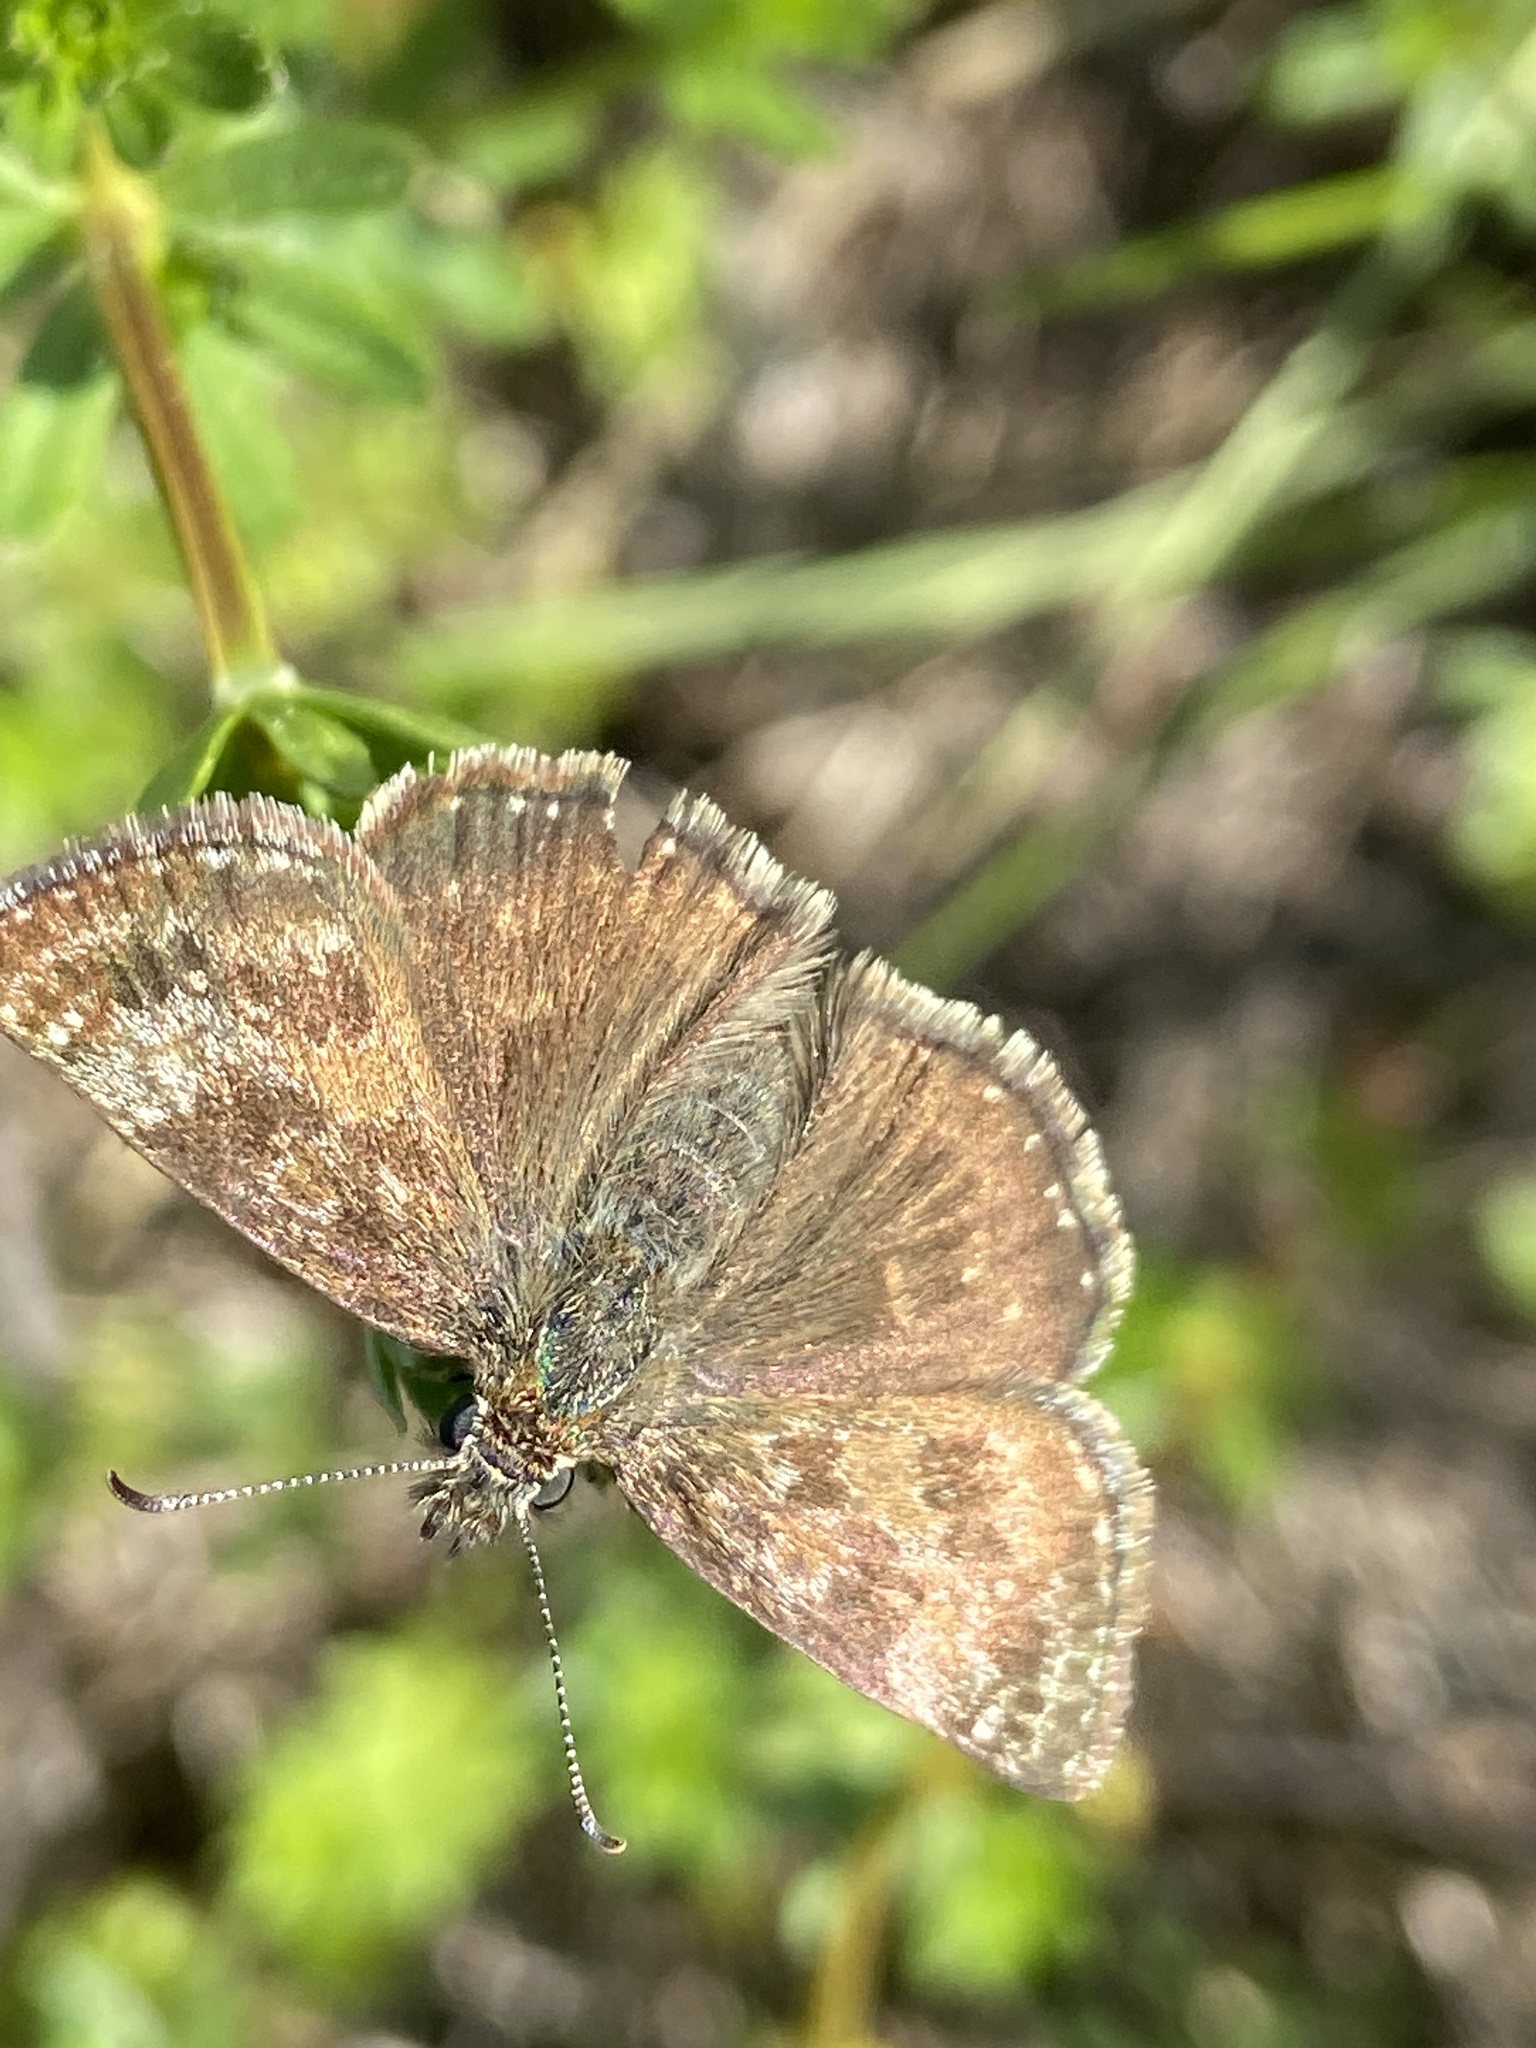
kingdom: Animalia
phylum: Arthropoda
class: Insecta
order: Lepidoptera
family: Hesperiidae
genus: Erynnis
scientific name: Erynnis tages
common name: Dingy skipper
